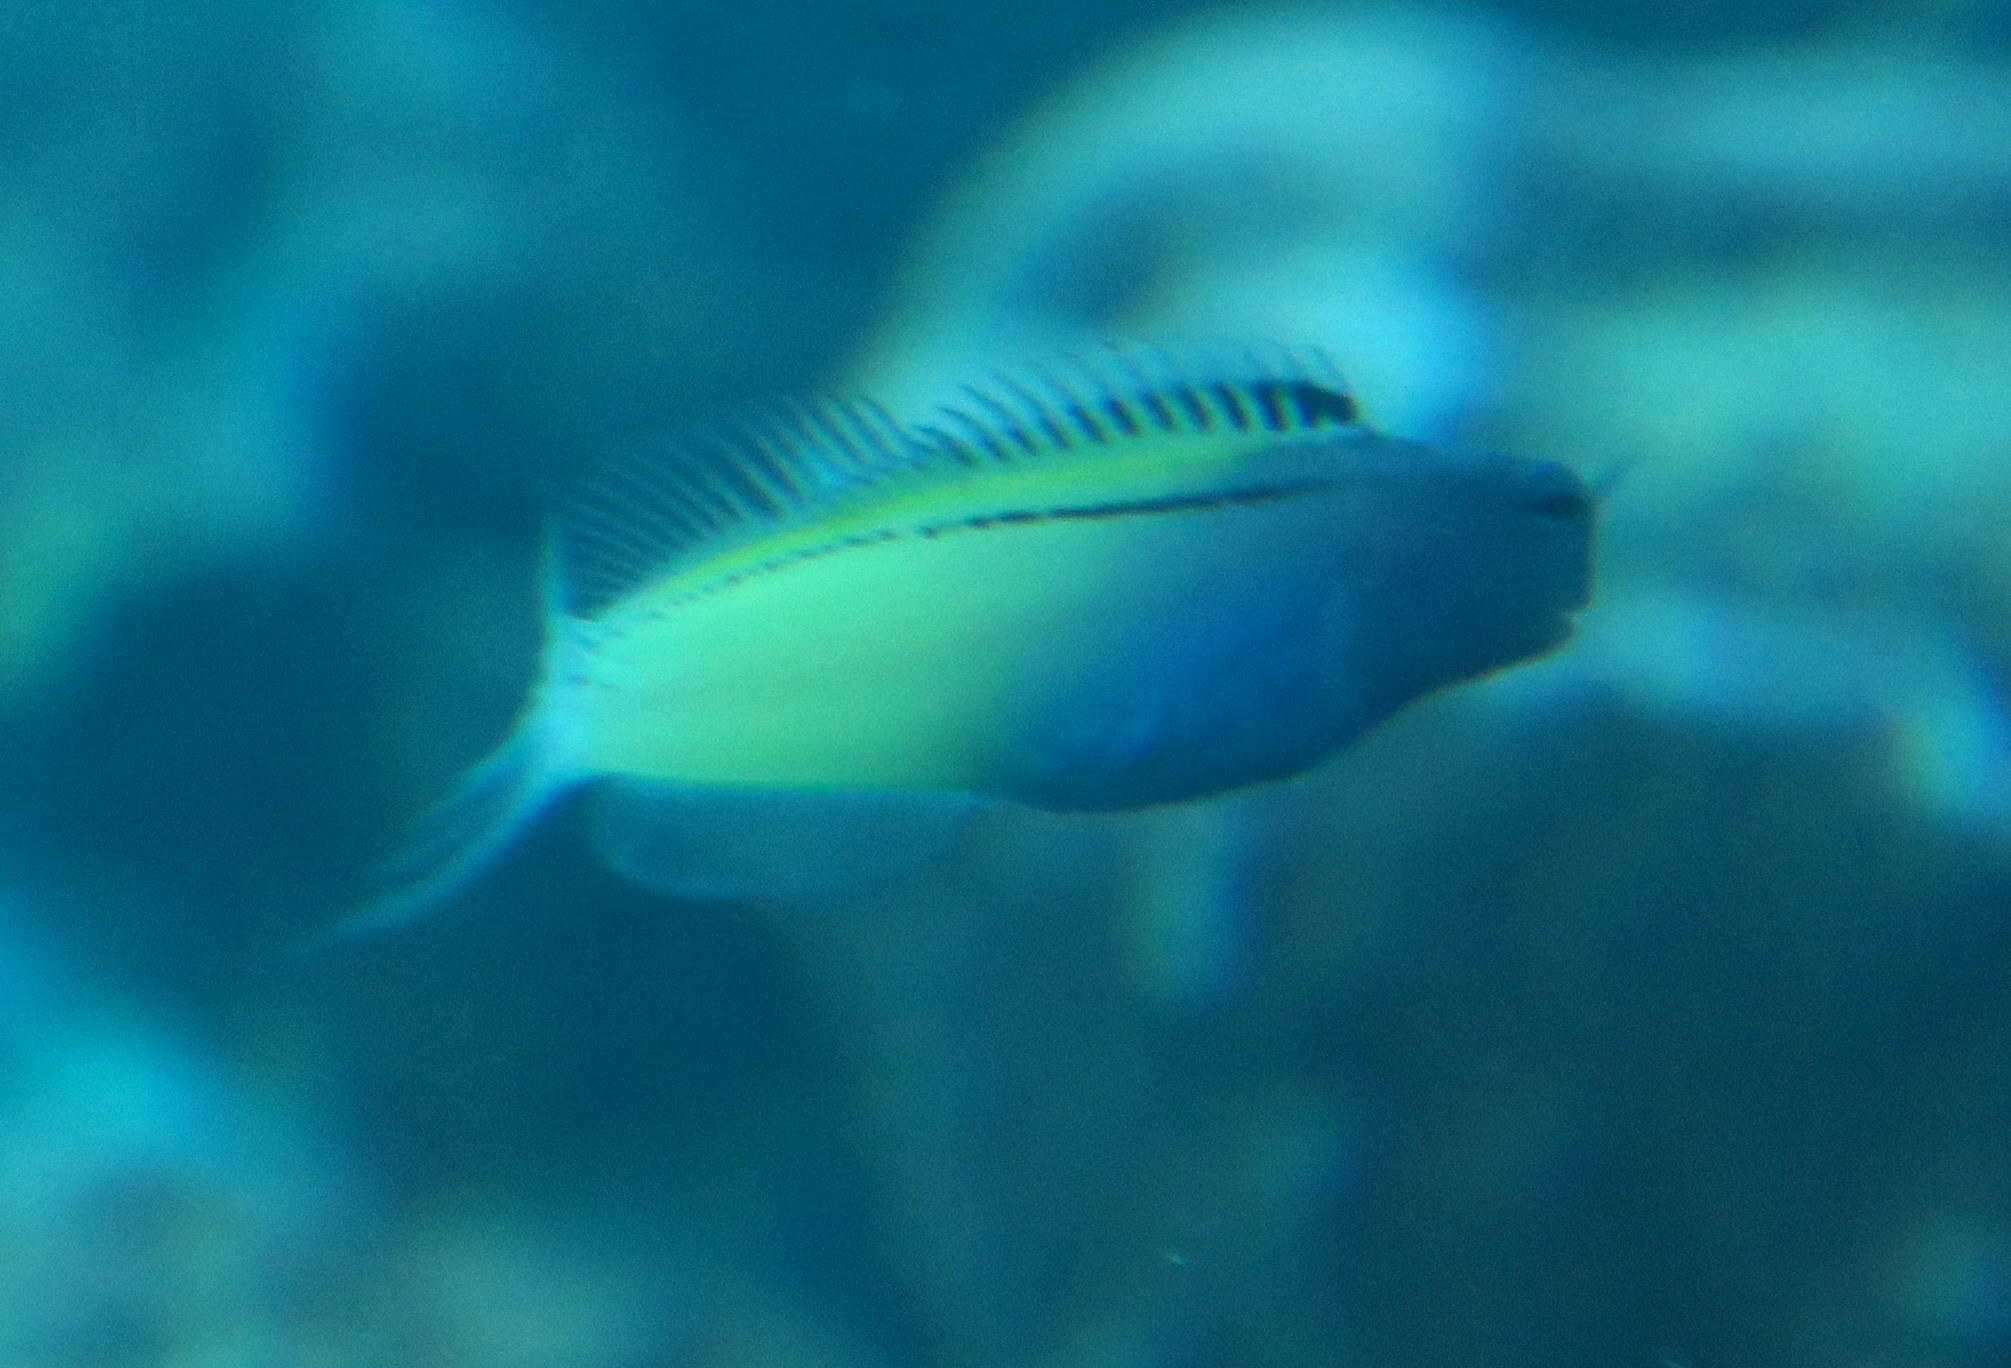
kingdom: Animalia
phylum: Chordata
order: Perciformes
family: Blenniidae
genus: Meiacanthus
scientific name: Meiacanthus nigrolineatus
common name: Blackline fangblenny
